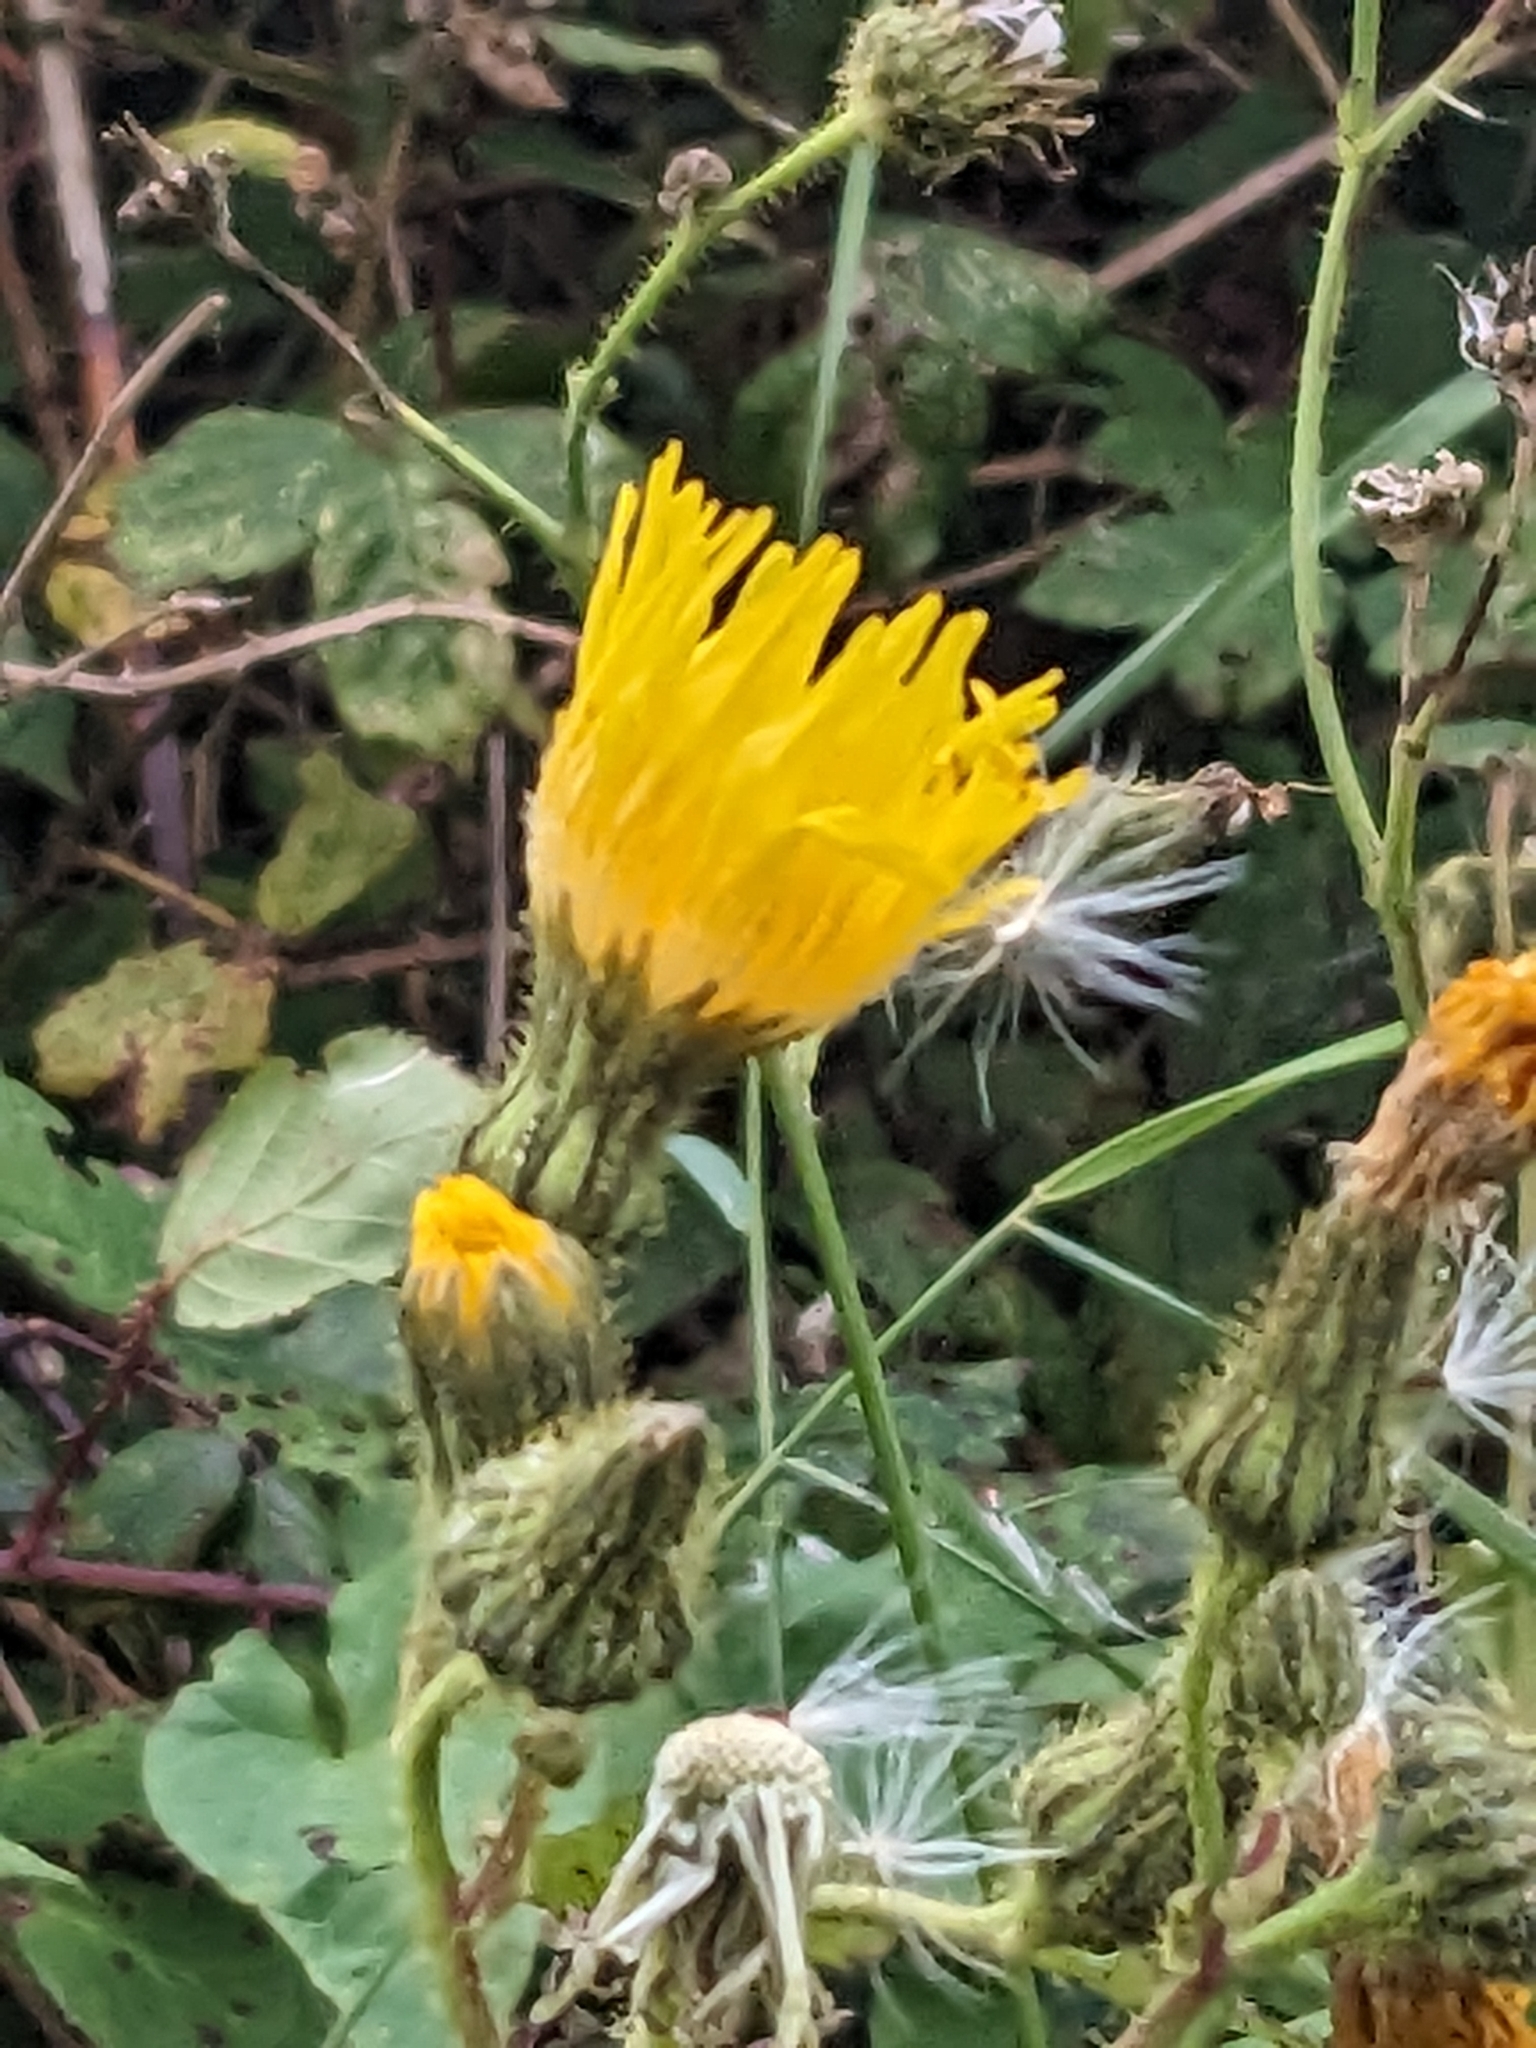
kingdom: Plantae
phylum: Tracheophyta
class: Magnoliopsida
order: Asterales
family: Asteraceae
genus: Sonchus
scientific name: Sonchus arvensis
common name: Perennial sow-thistle
